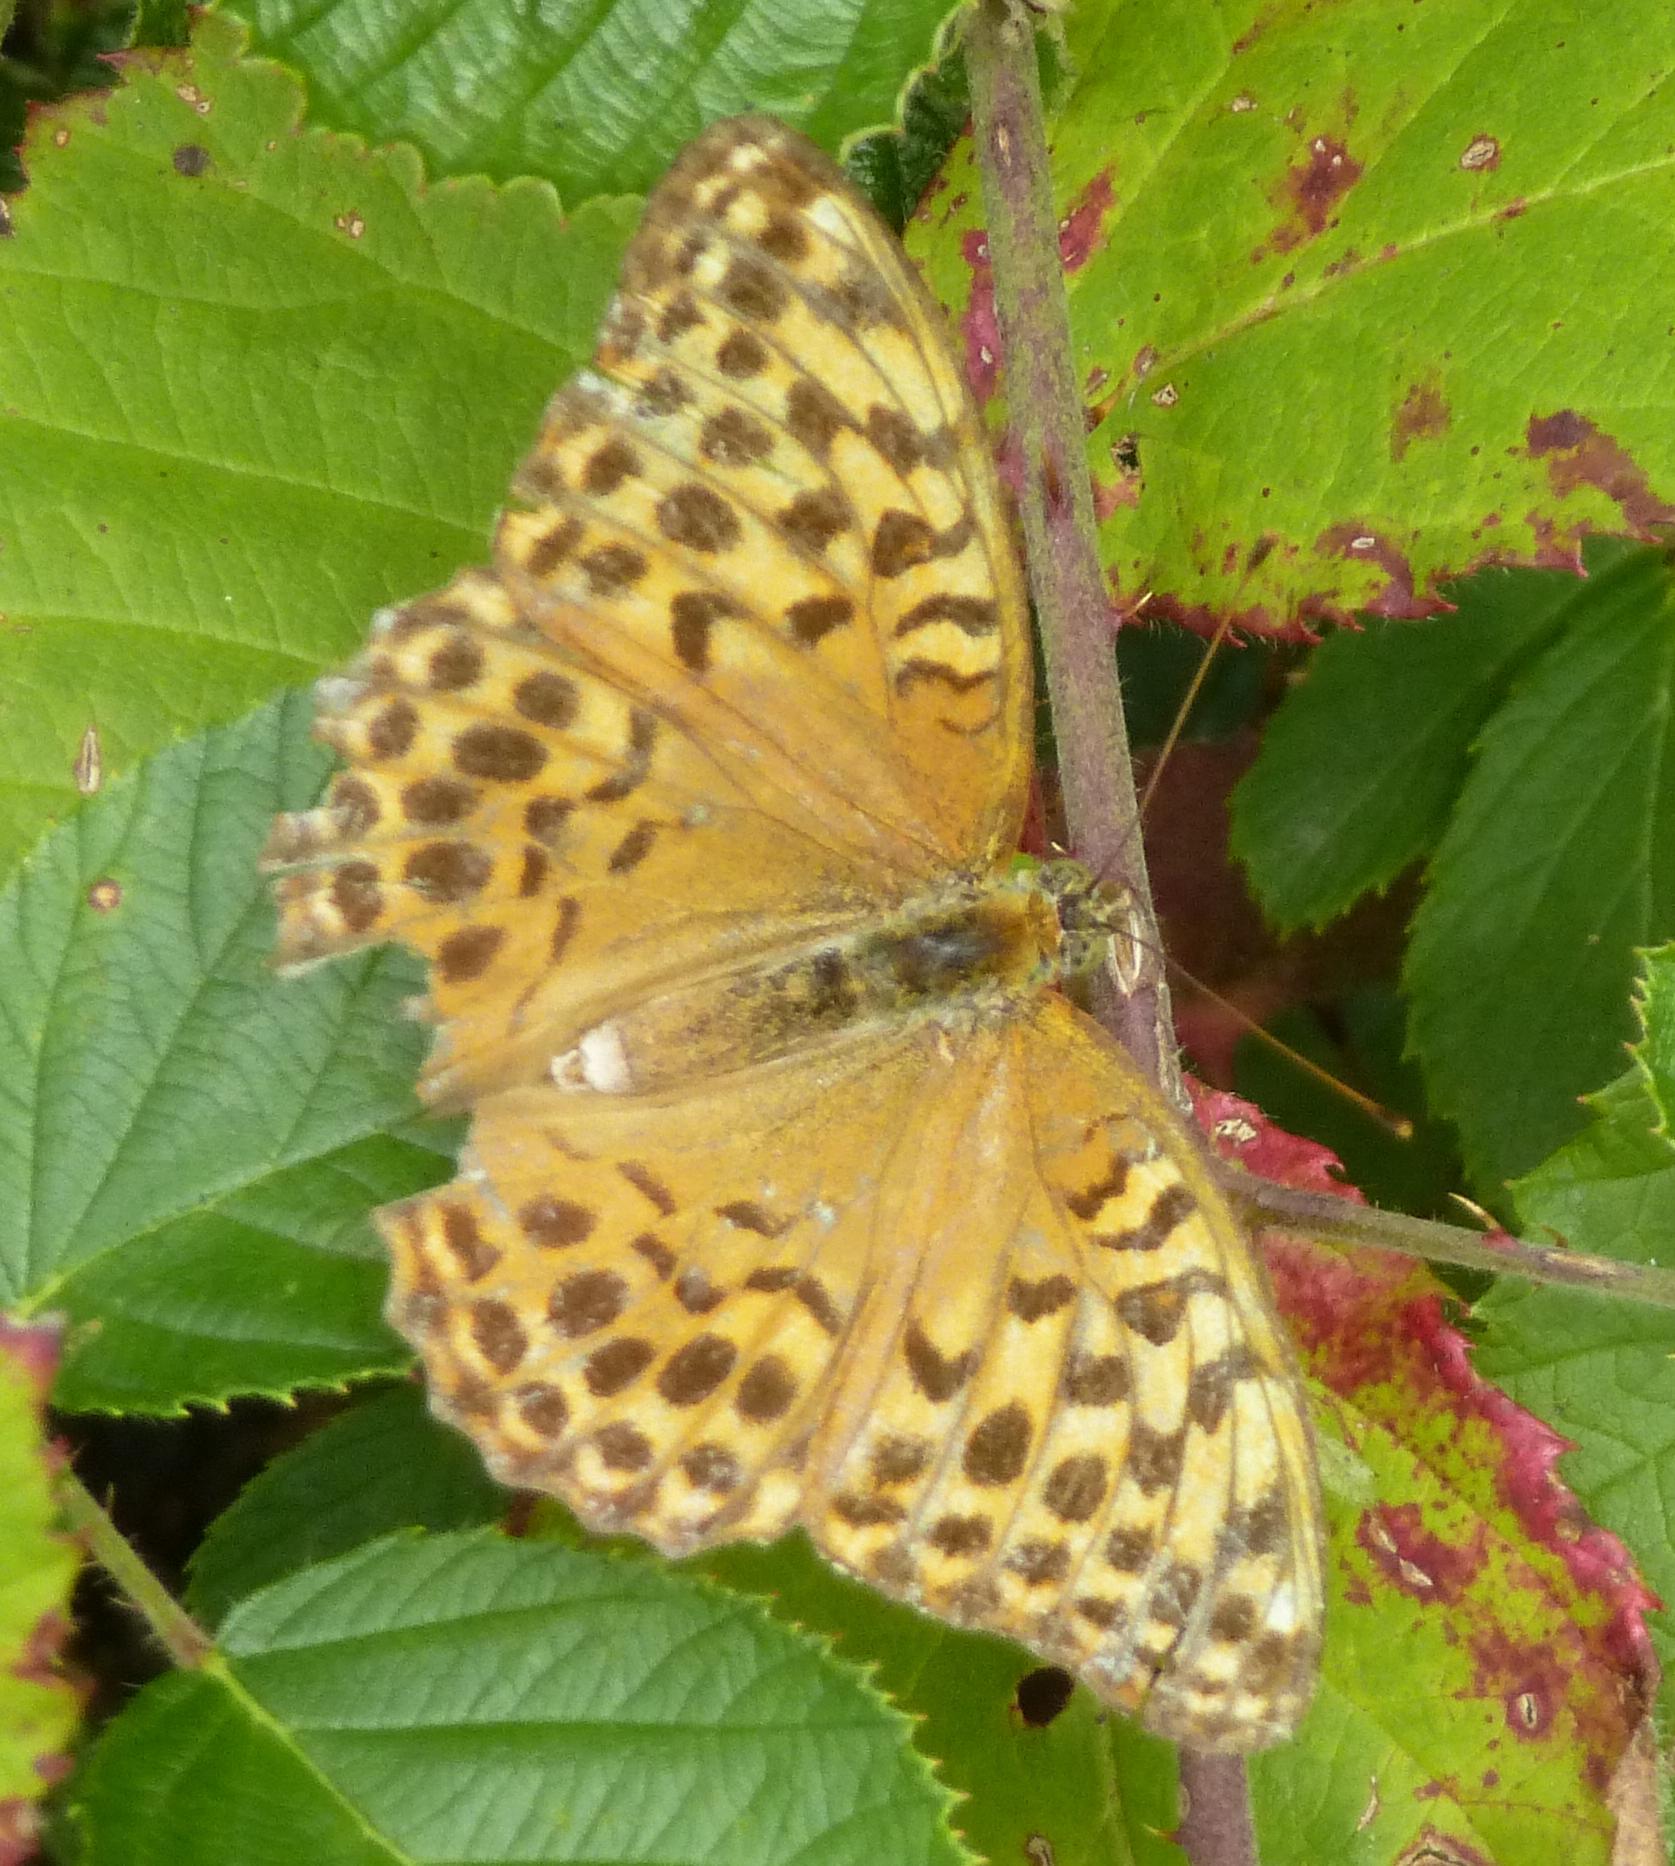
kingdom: Animalia
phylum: Arthropoda
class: Insecta
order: Lepidoptera
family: Nymphalidae
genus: Argynnis
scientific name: Argynnis paphia
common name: Silver-washed fritillary
